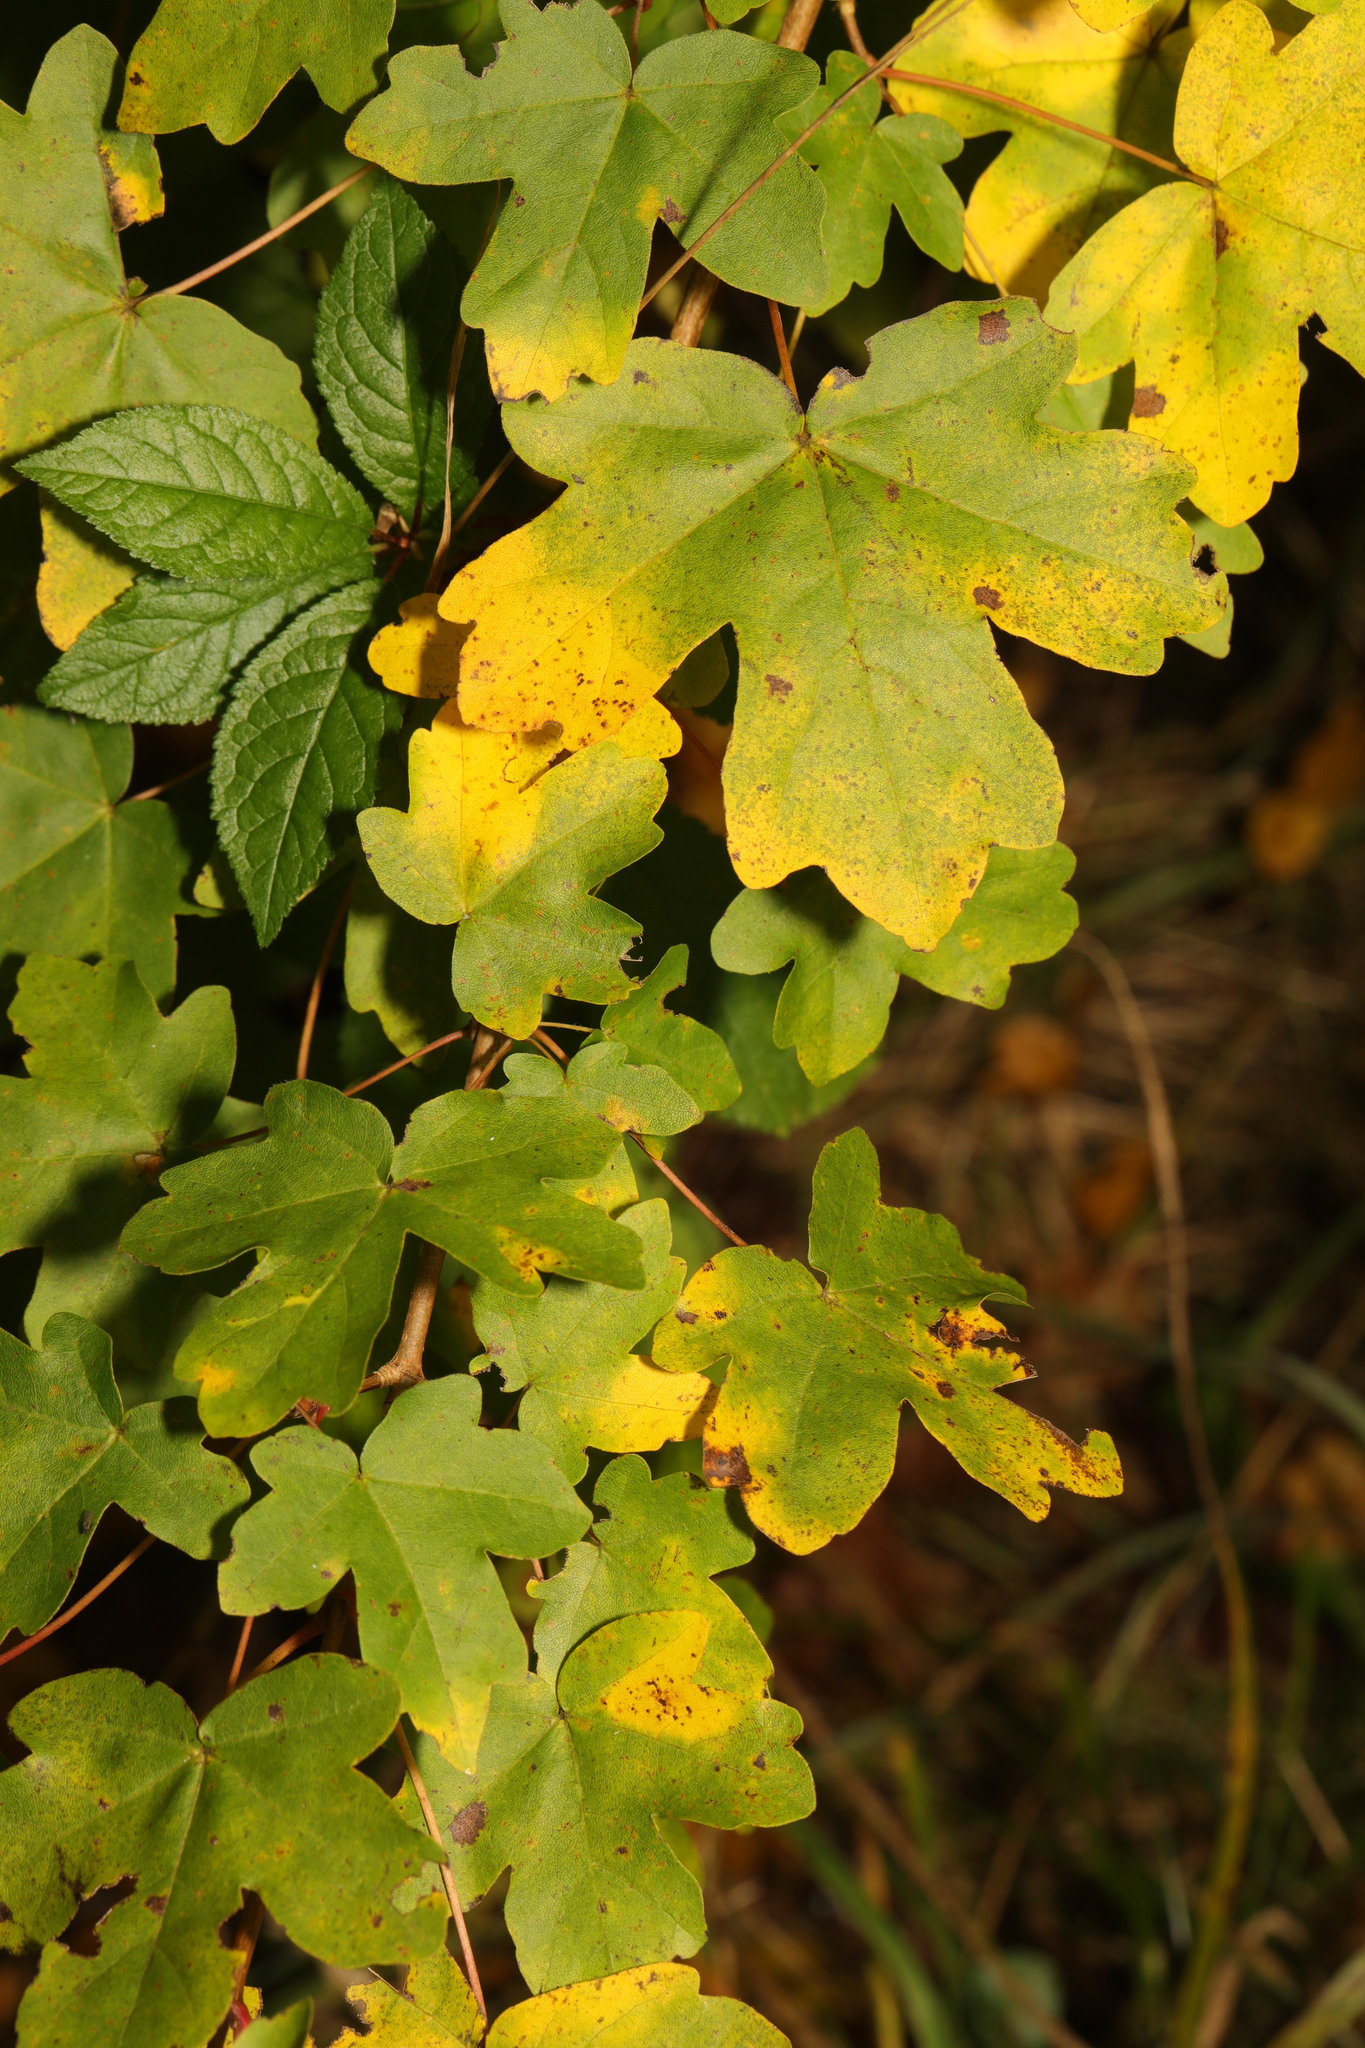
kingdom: Plantae
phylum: Tracheophyta
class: Magnoliopsida
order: Sapindales
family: Sapindaceae
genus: Acer
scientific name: Acer campestre
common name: Field maple
